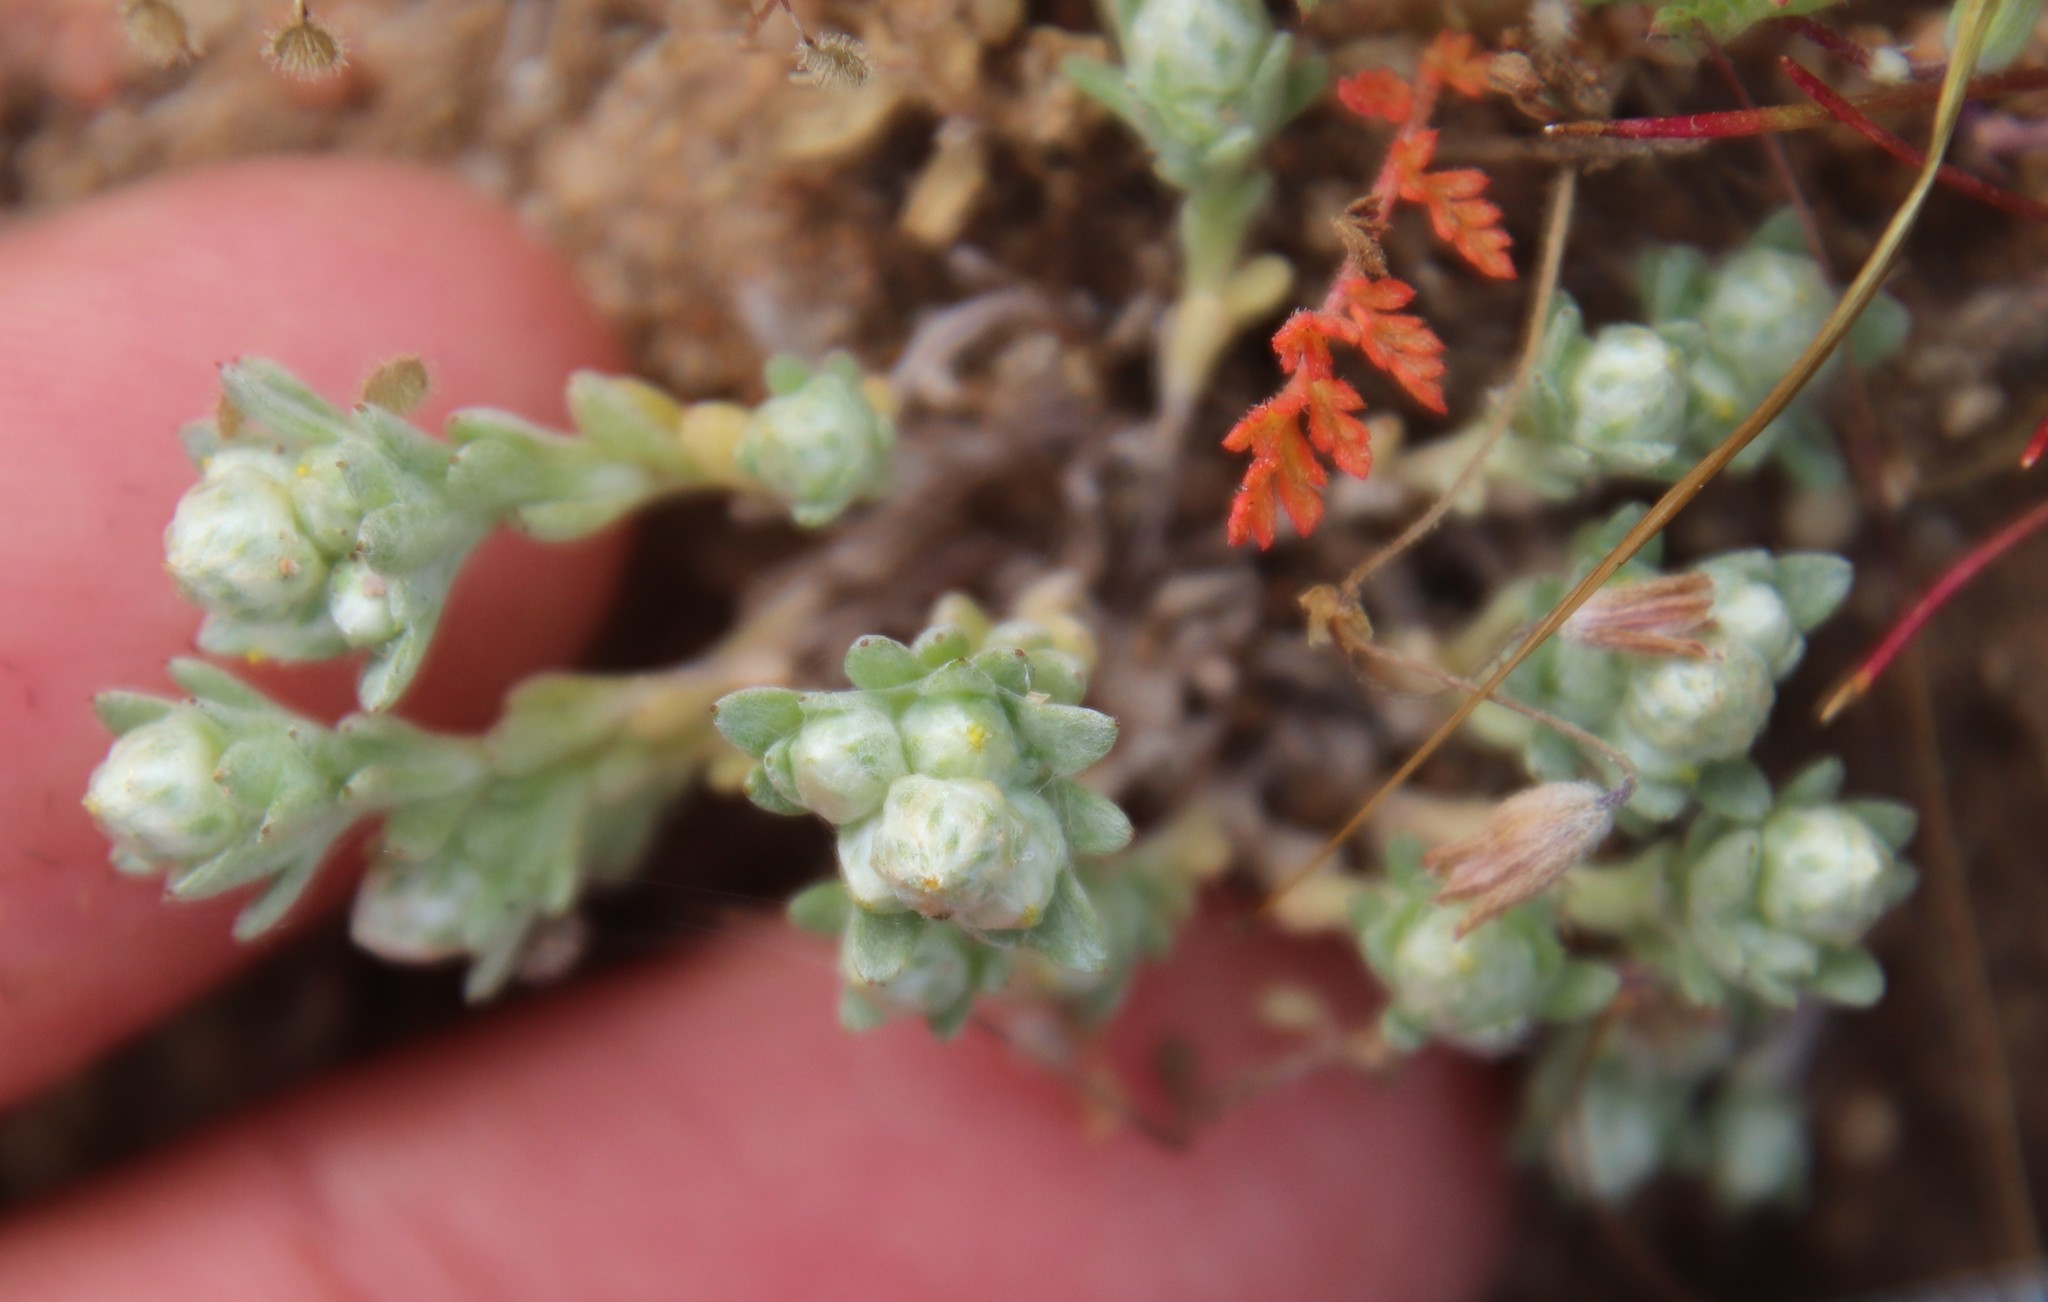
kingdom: Plantae
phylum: Tracheophyta
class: Magnoliopsida
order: Asterales
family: Asteraceae
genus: Stylocline
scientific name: Stylocline gnaphaloides
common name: Everlasting nest-straw
